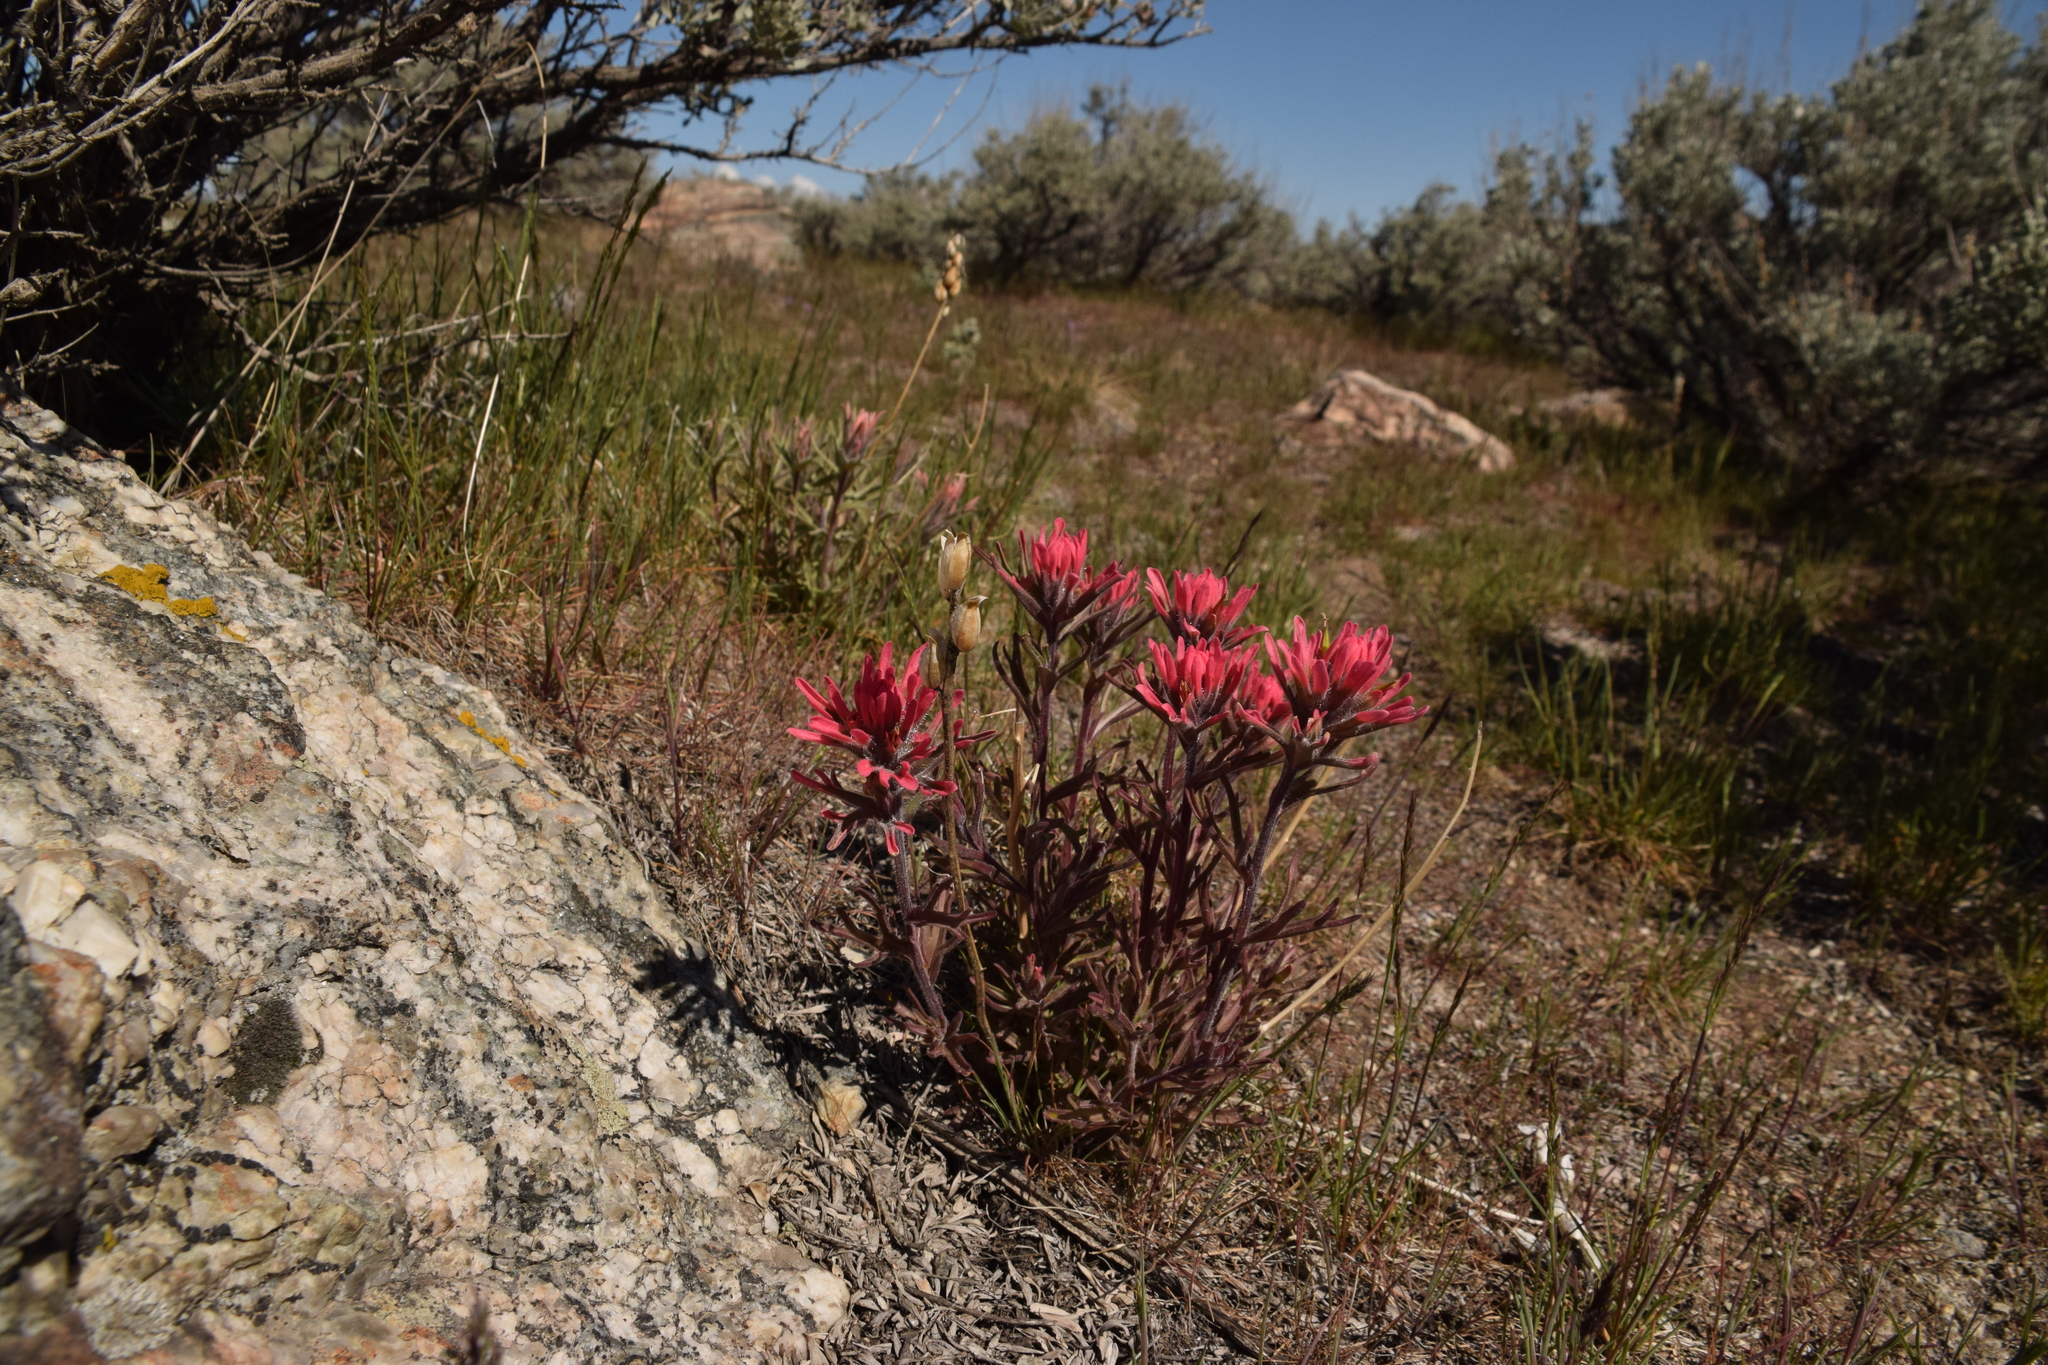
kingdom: Plantae
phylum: Tracheophyta
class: Magnoliopsida
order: Lamiales
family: Orobanchaceae
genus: Castilleja
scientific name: Castilleja chromosa
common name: Desert paintbrush
